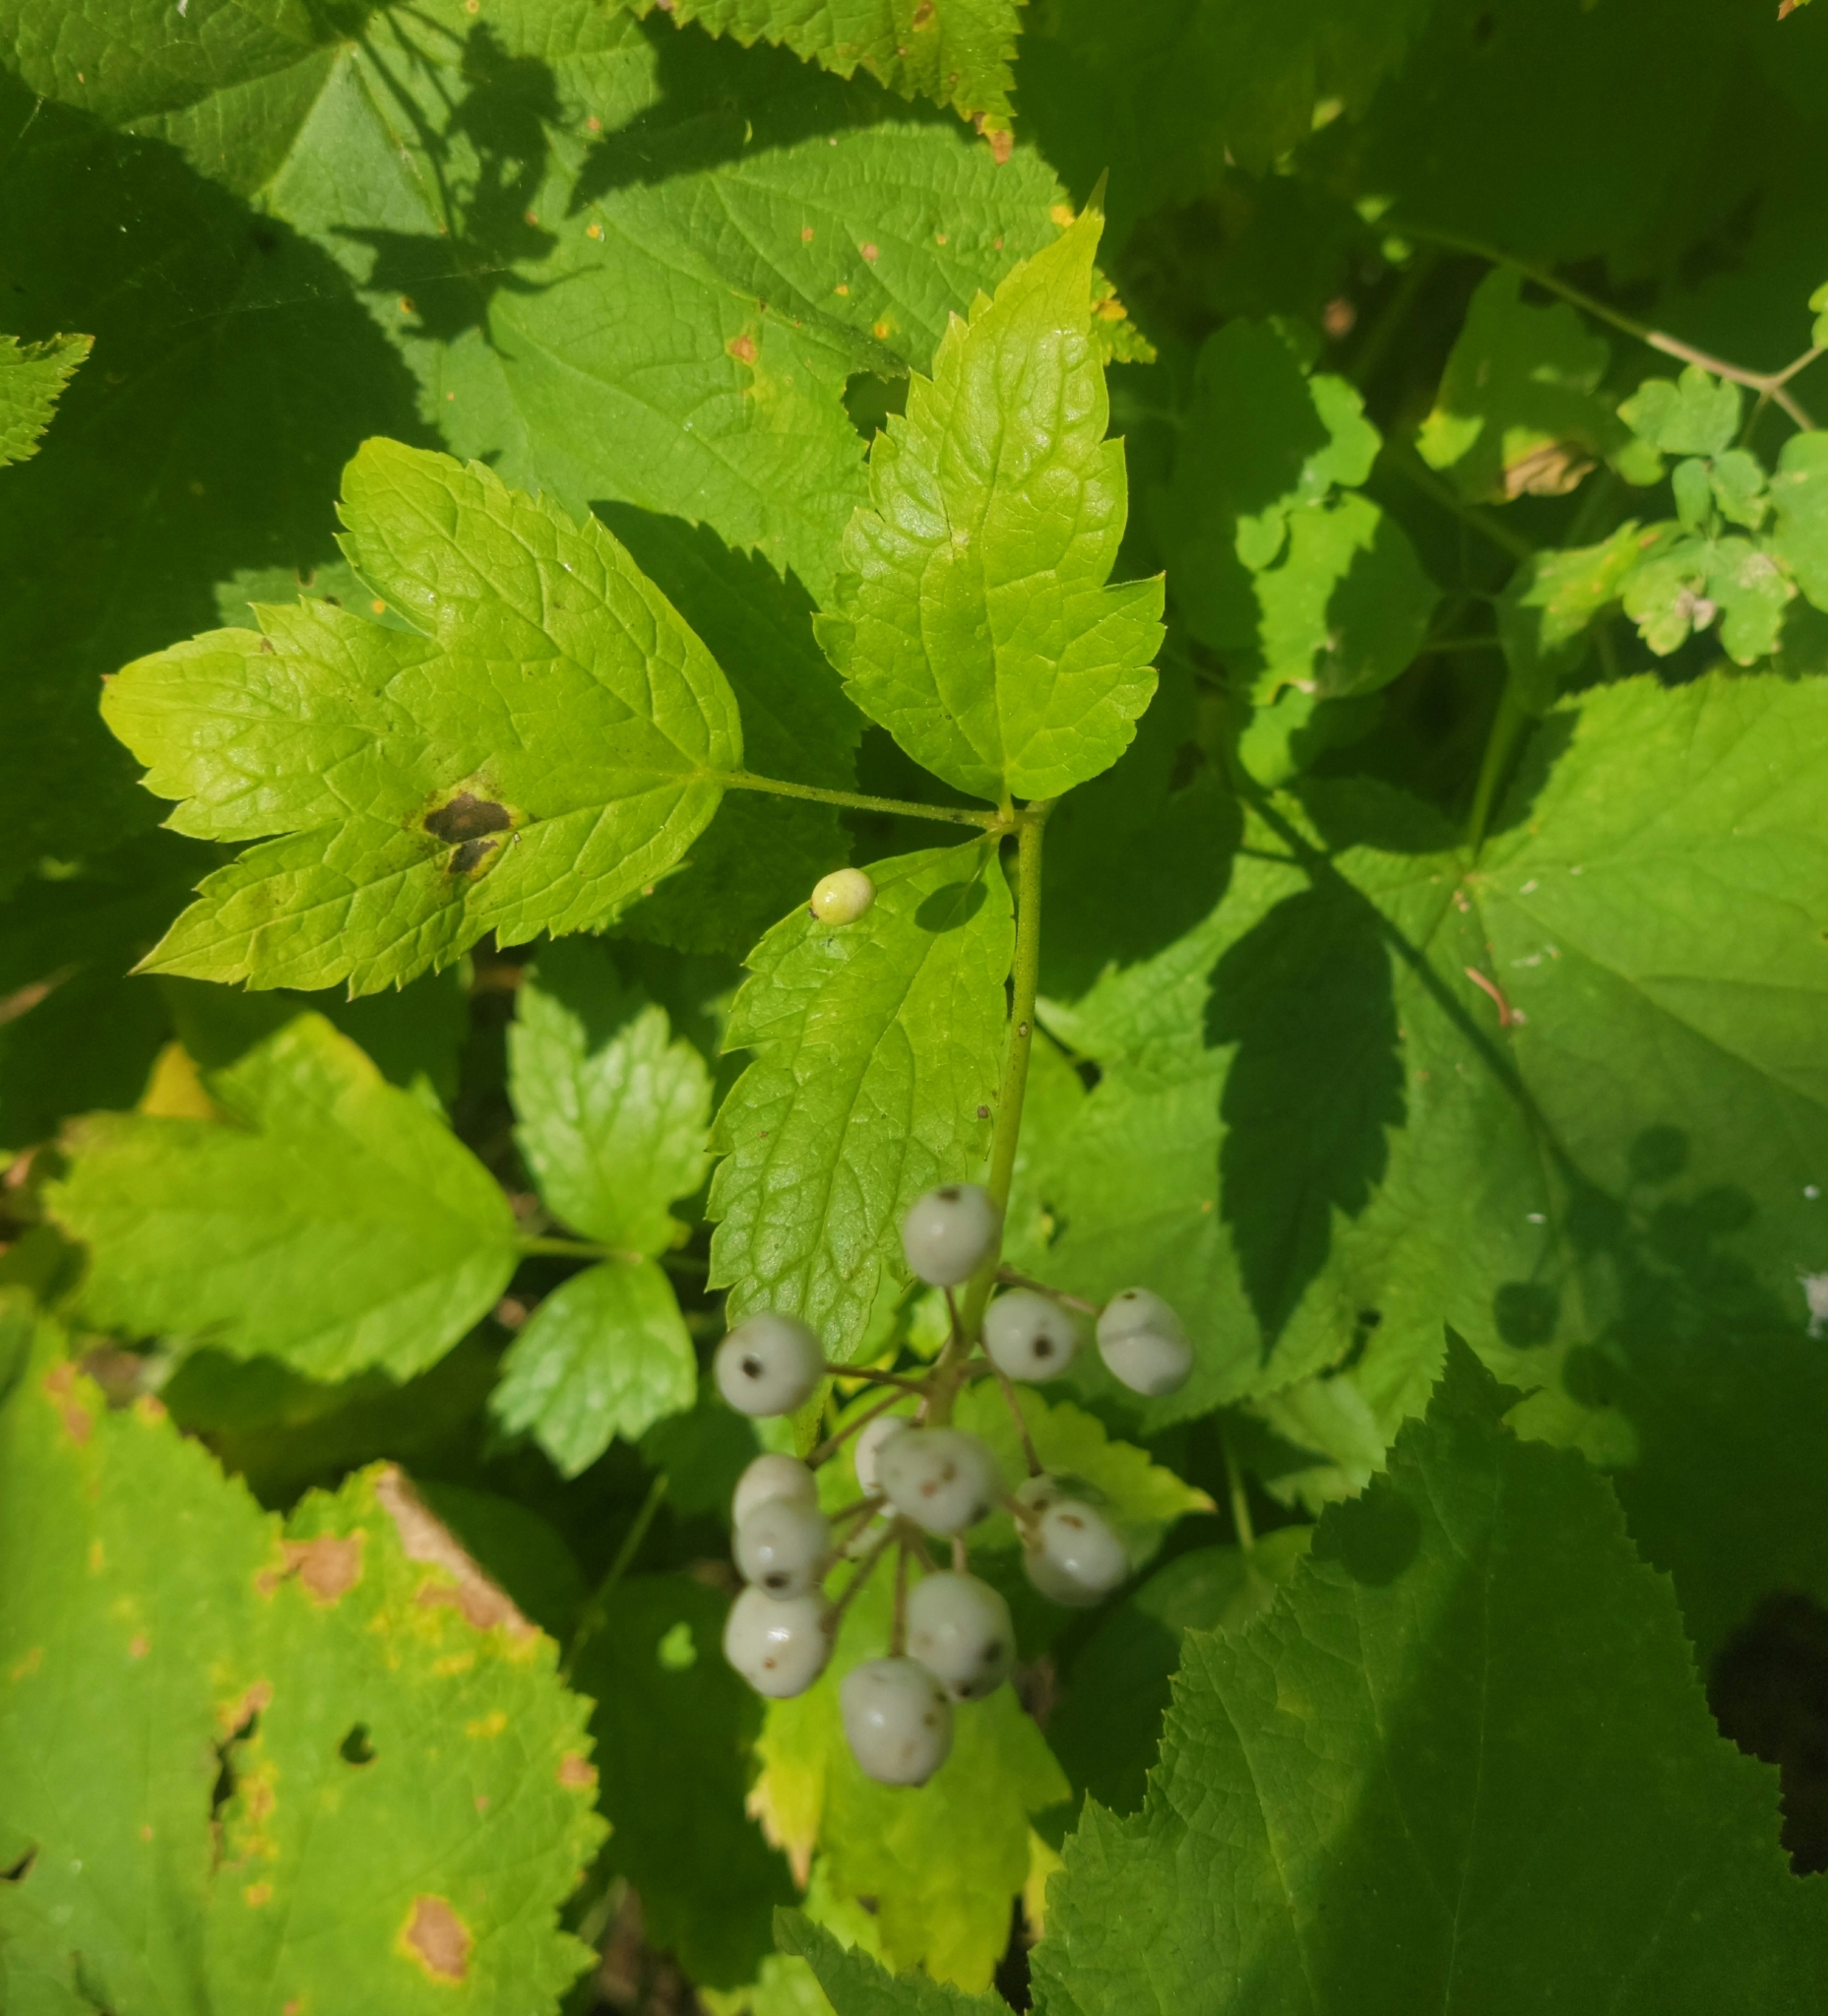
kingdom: Plantae
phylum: Tracheophyta
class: Magnoliopsida
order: Ranunculales
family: Ranunculaceae
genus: Actaea
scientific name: Actaea rubra
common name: Red baneberry
